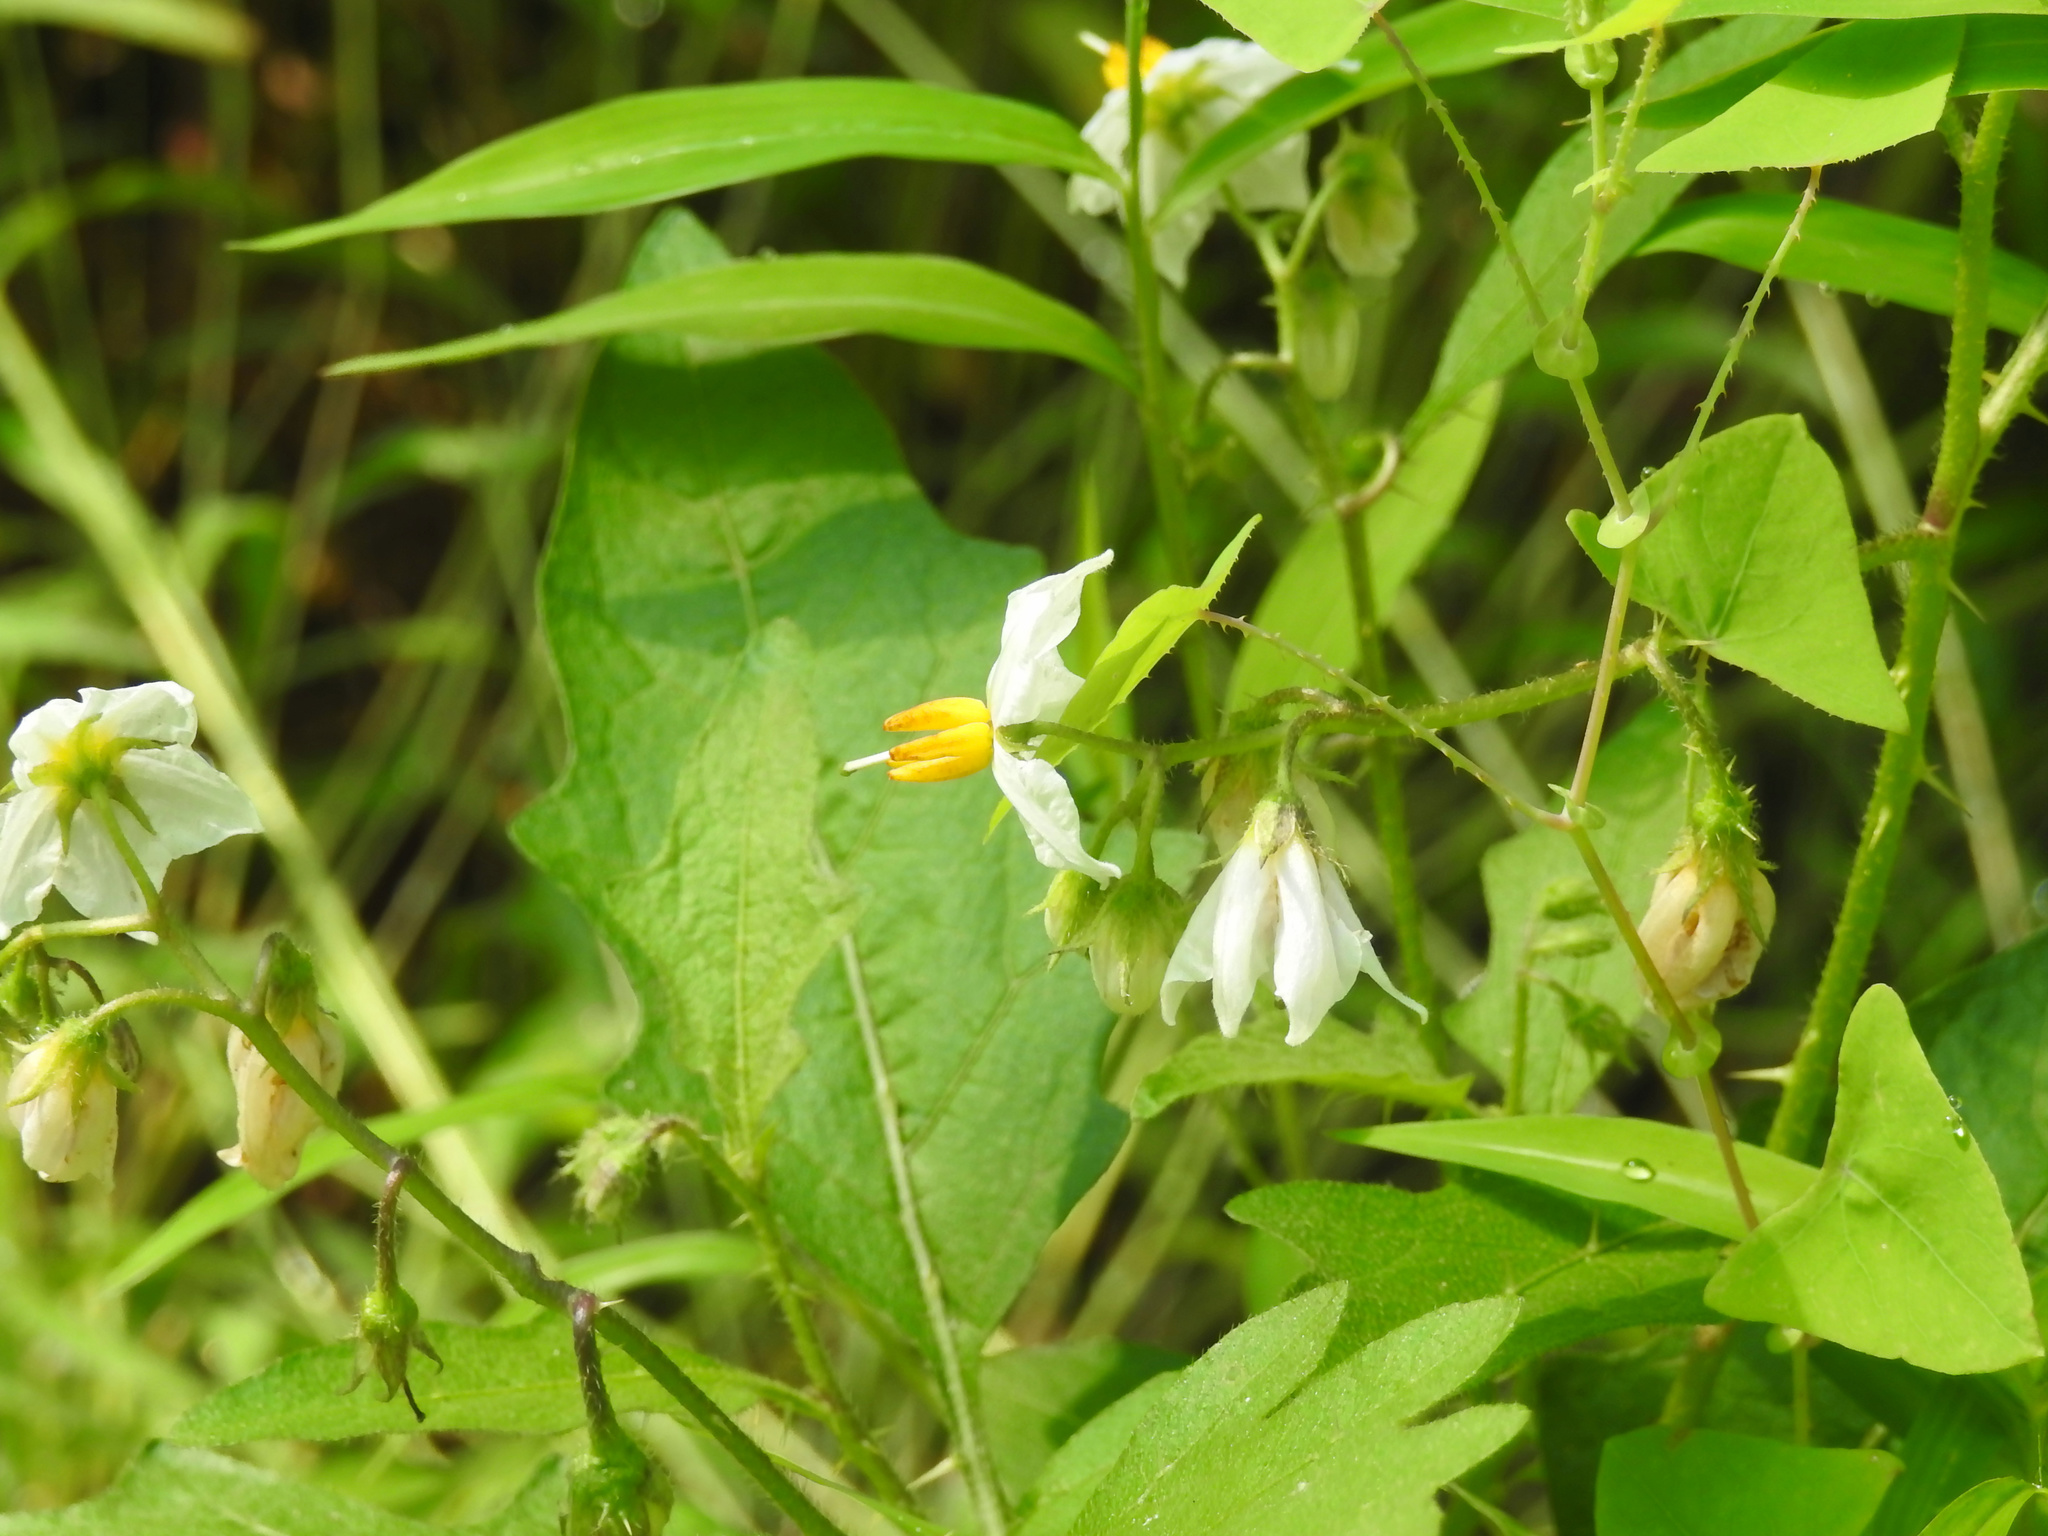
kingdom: Plantae
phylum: Tracheophyta
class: Magnoliopsida
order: Solanales
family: Solanaceae
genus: Solanum
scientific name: Solanum carolinense
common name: Horse-nettle
